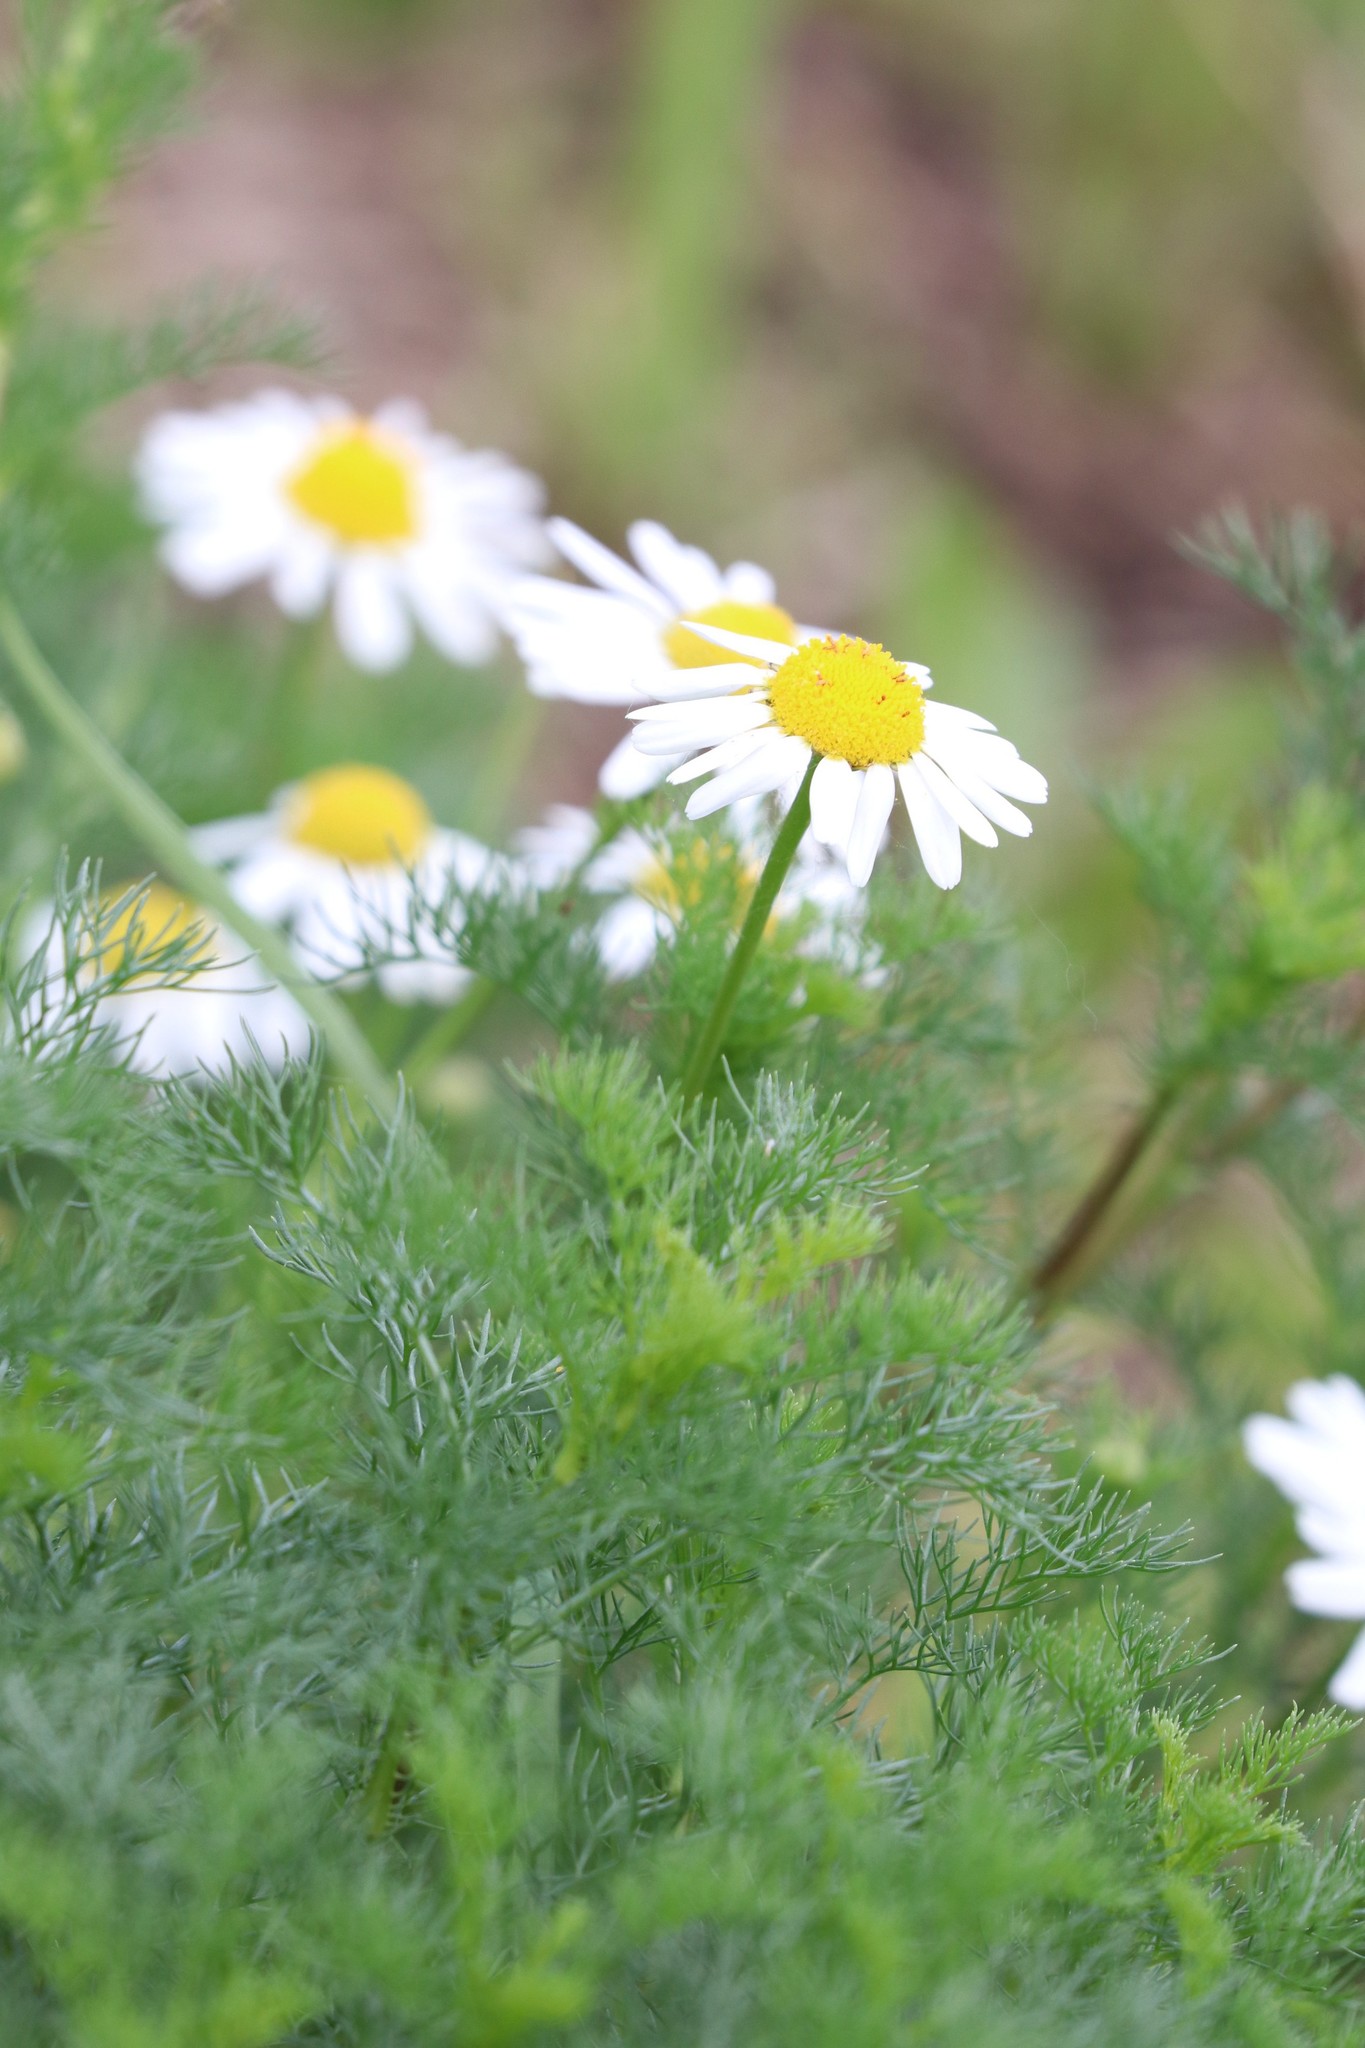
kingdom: Plantae
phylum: Tracheophyta
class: Magnoliopsida
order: Asterales
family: Asteraceae
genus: Tripleurospermum
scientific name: Tripleurospermum inodorum
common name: Scentless mayweed
